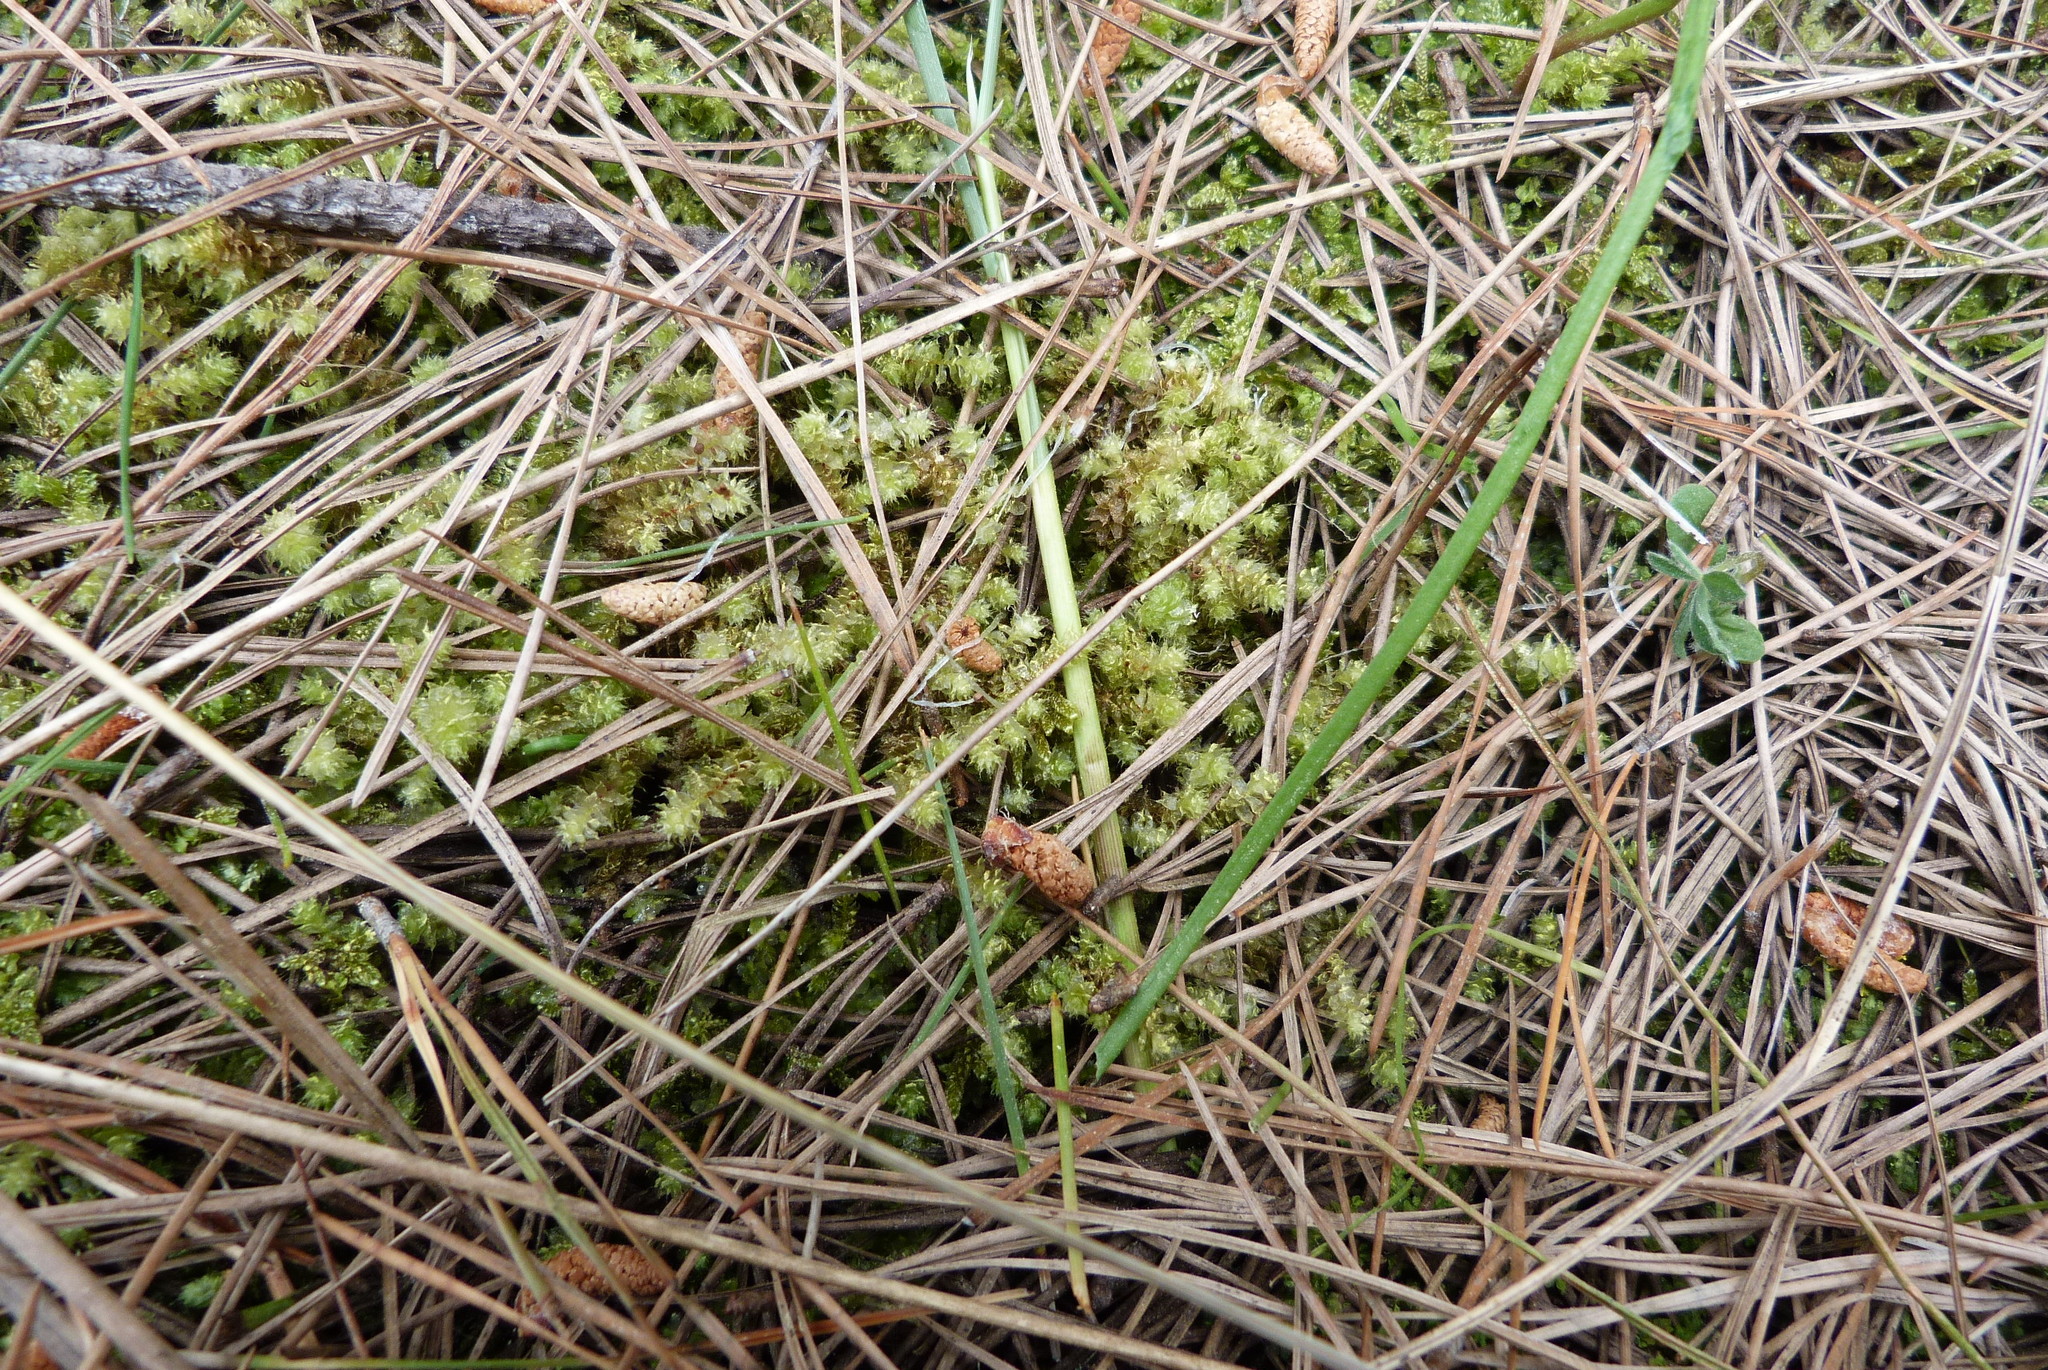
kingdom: Plantae
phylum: Bryophyta
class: Bryopsida
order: Ptychomniales
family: Ptychomniaceae
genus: Ptychomnion
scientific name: Ptychomnion aciculare
